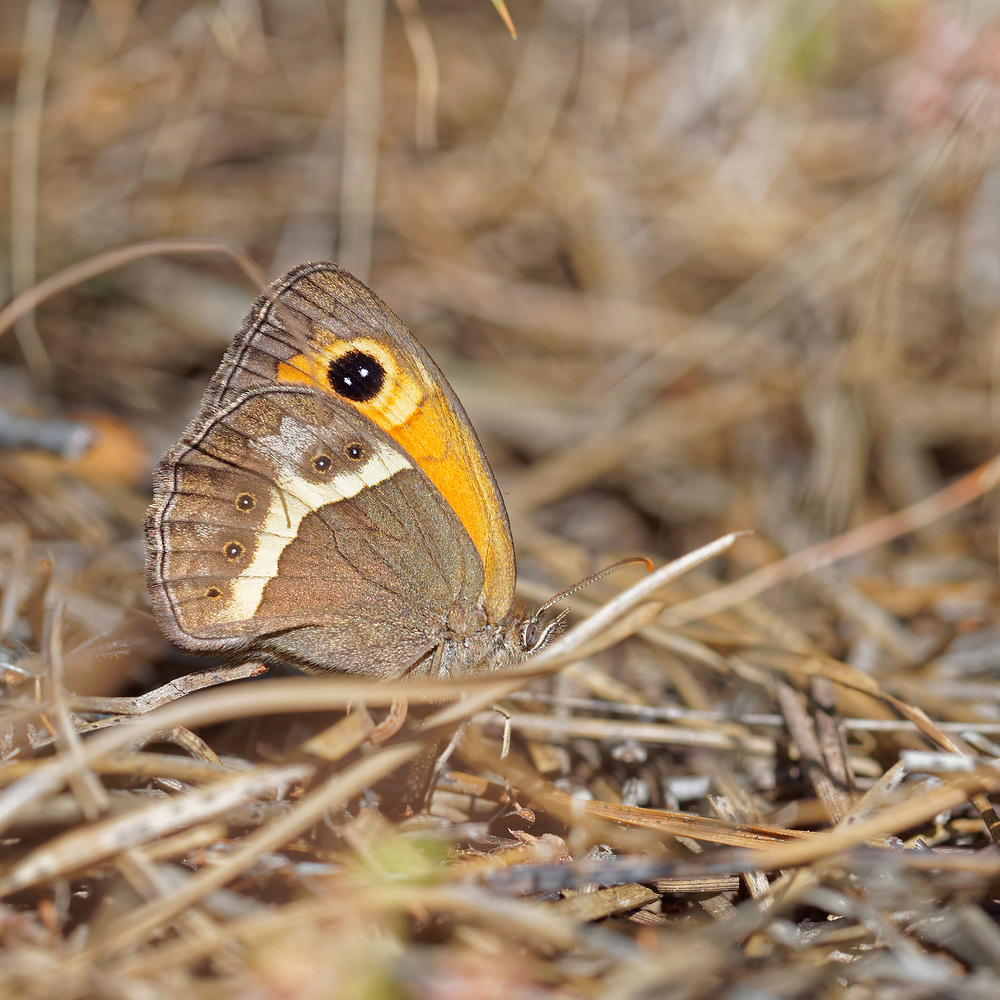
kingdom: Animalia
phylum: Arthropoda
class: Insecta
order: Lepidoptera
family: Nymphalidae
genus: Pyronia
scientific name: Pyronia bathseba
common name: Spanish gatekeeper
